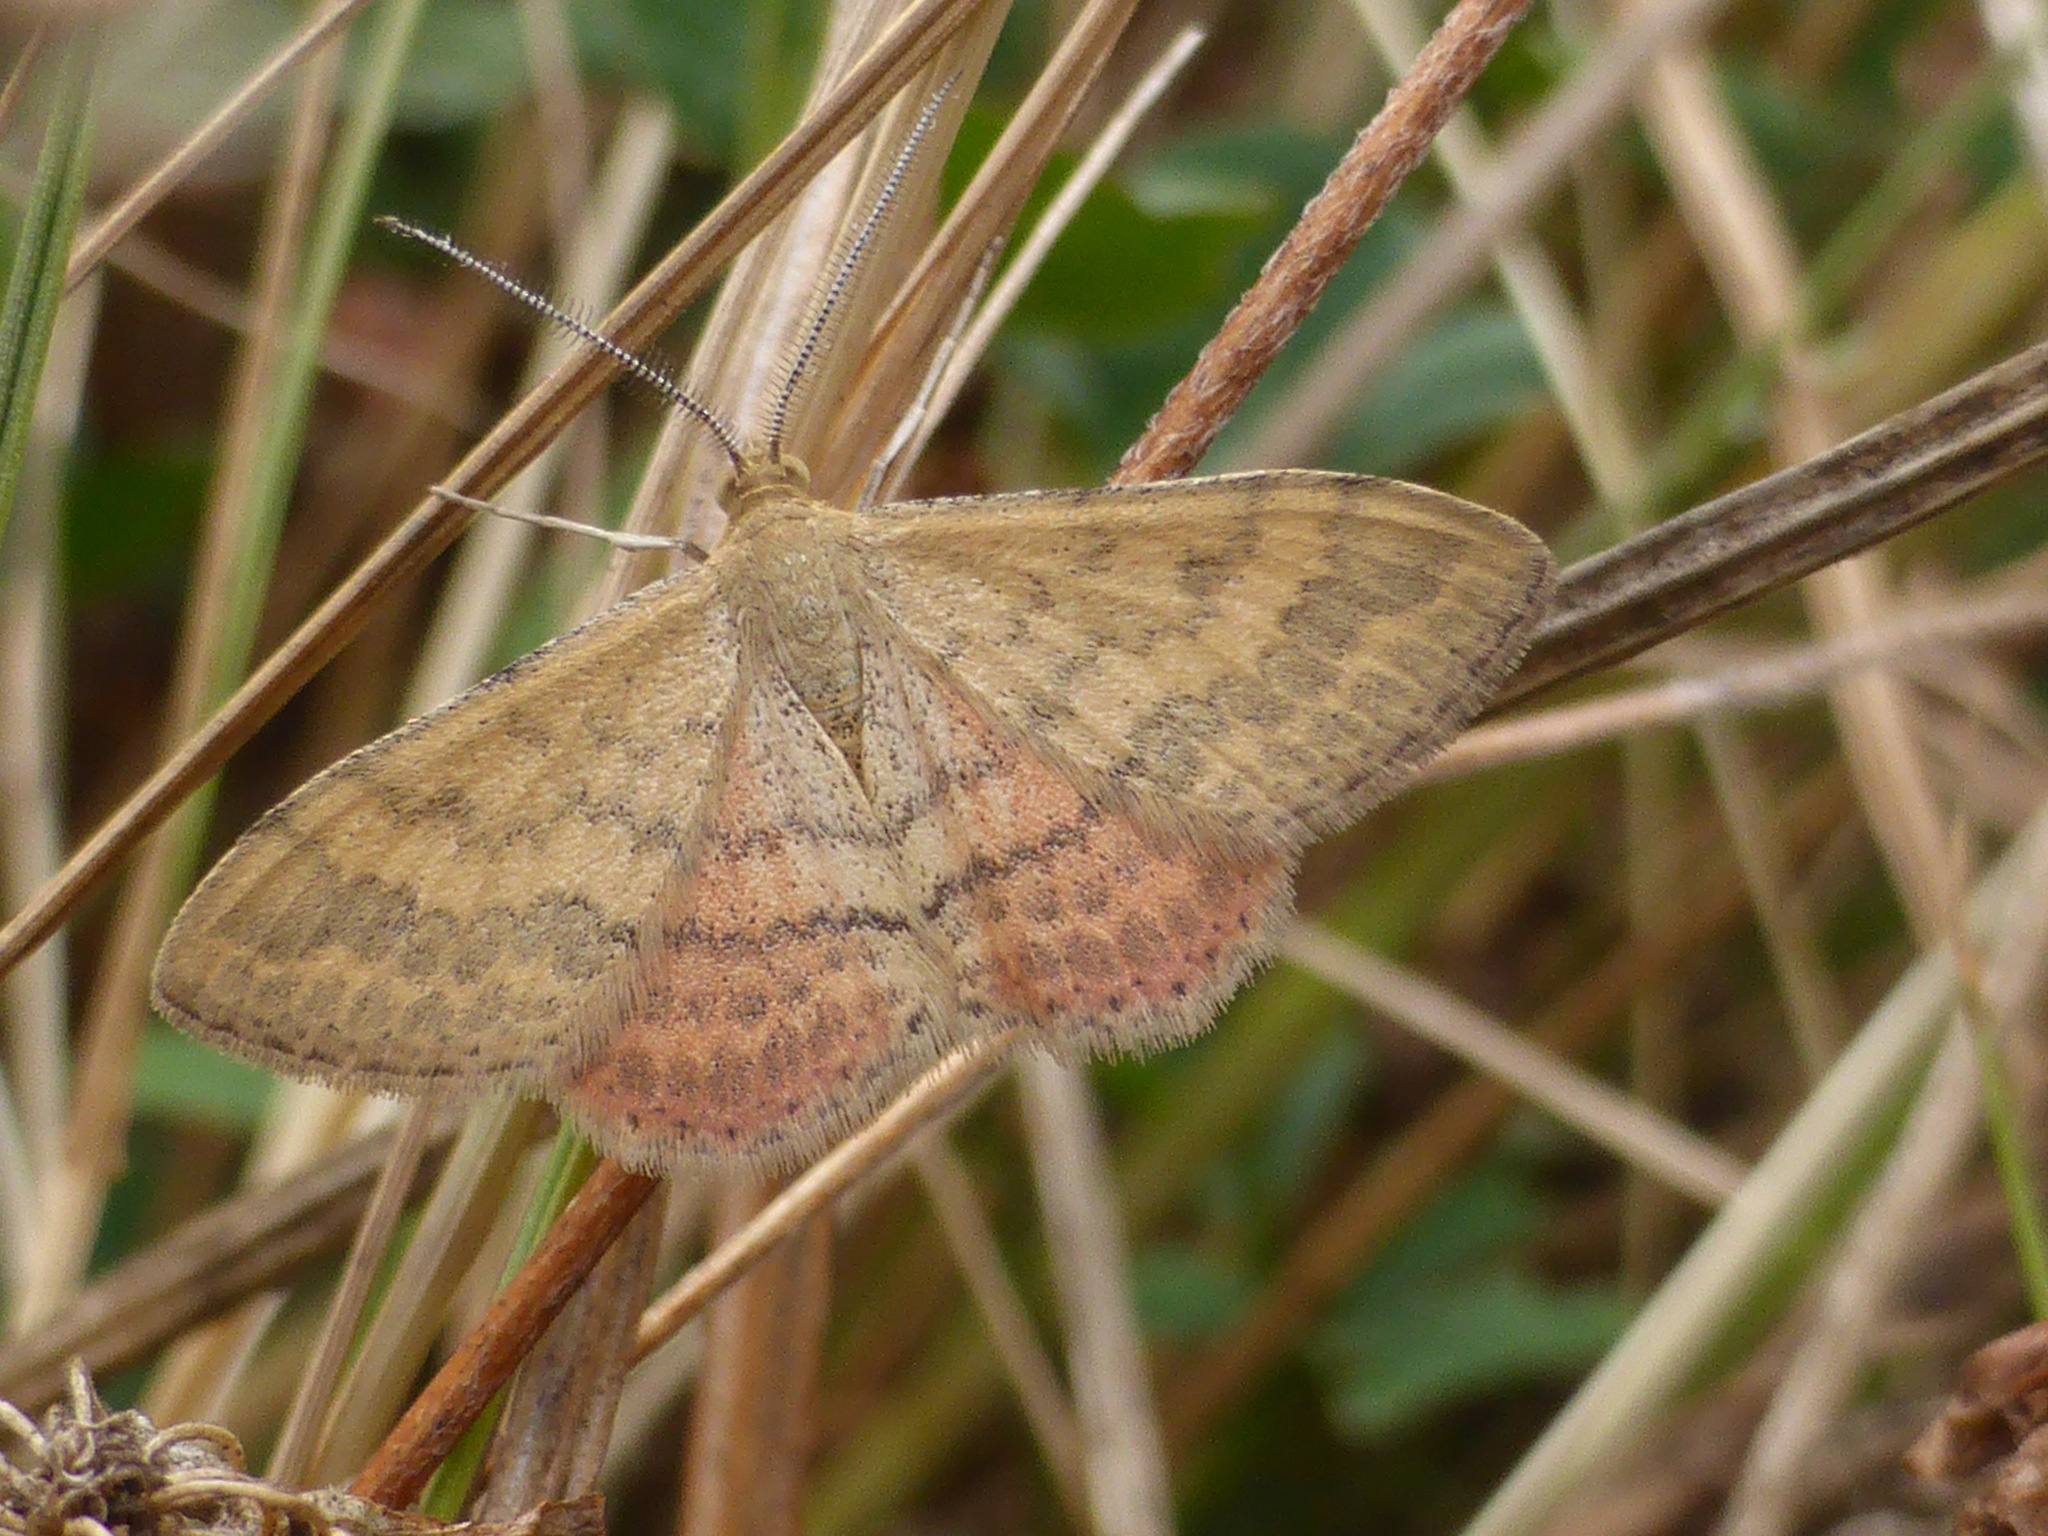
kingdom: Animalia
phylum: Arthropoda
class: Insecta
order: Lepidoptera
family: Geometridae
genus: Scopula
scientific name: Scopula rubraria
